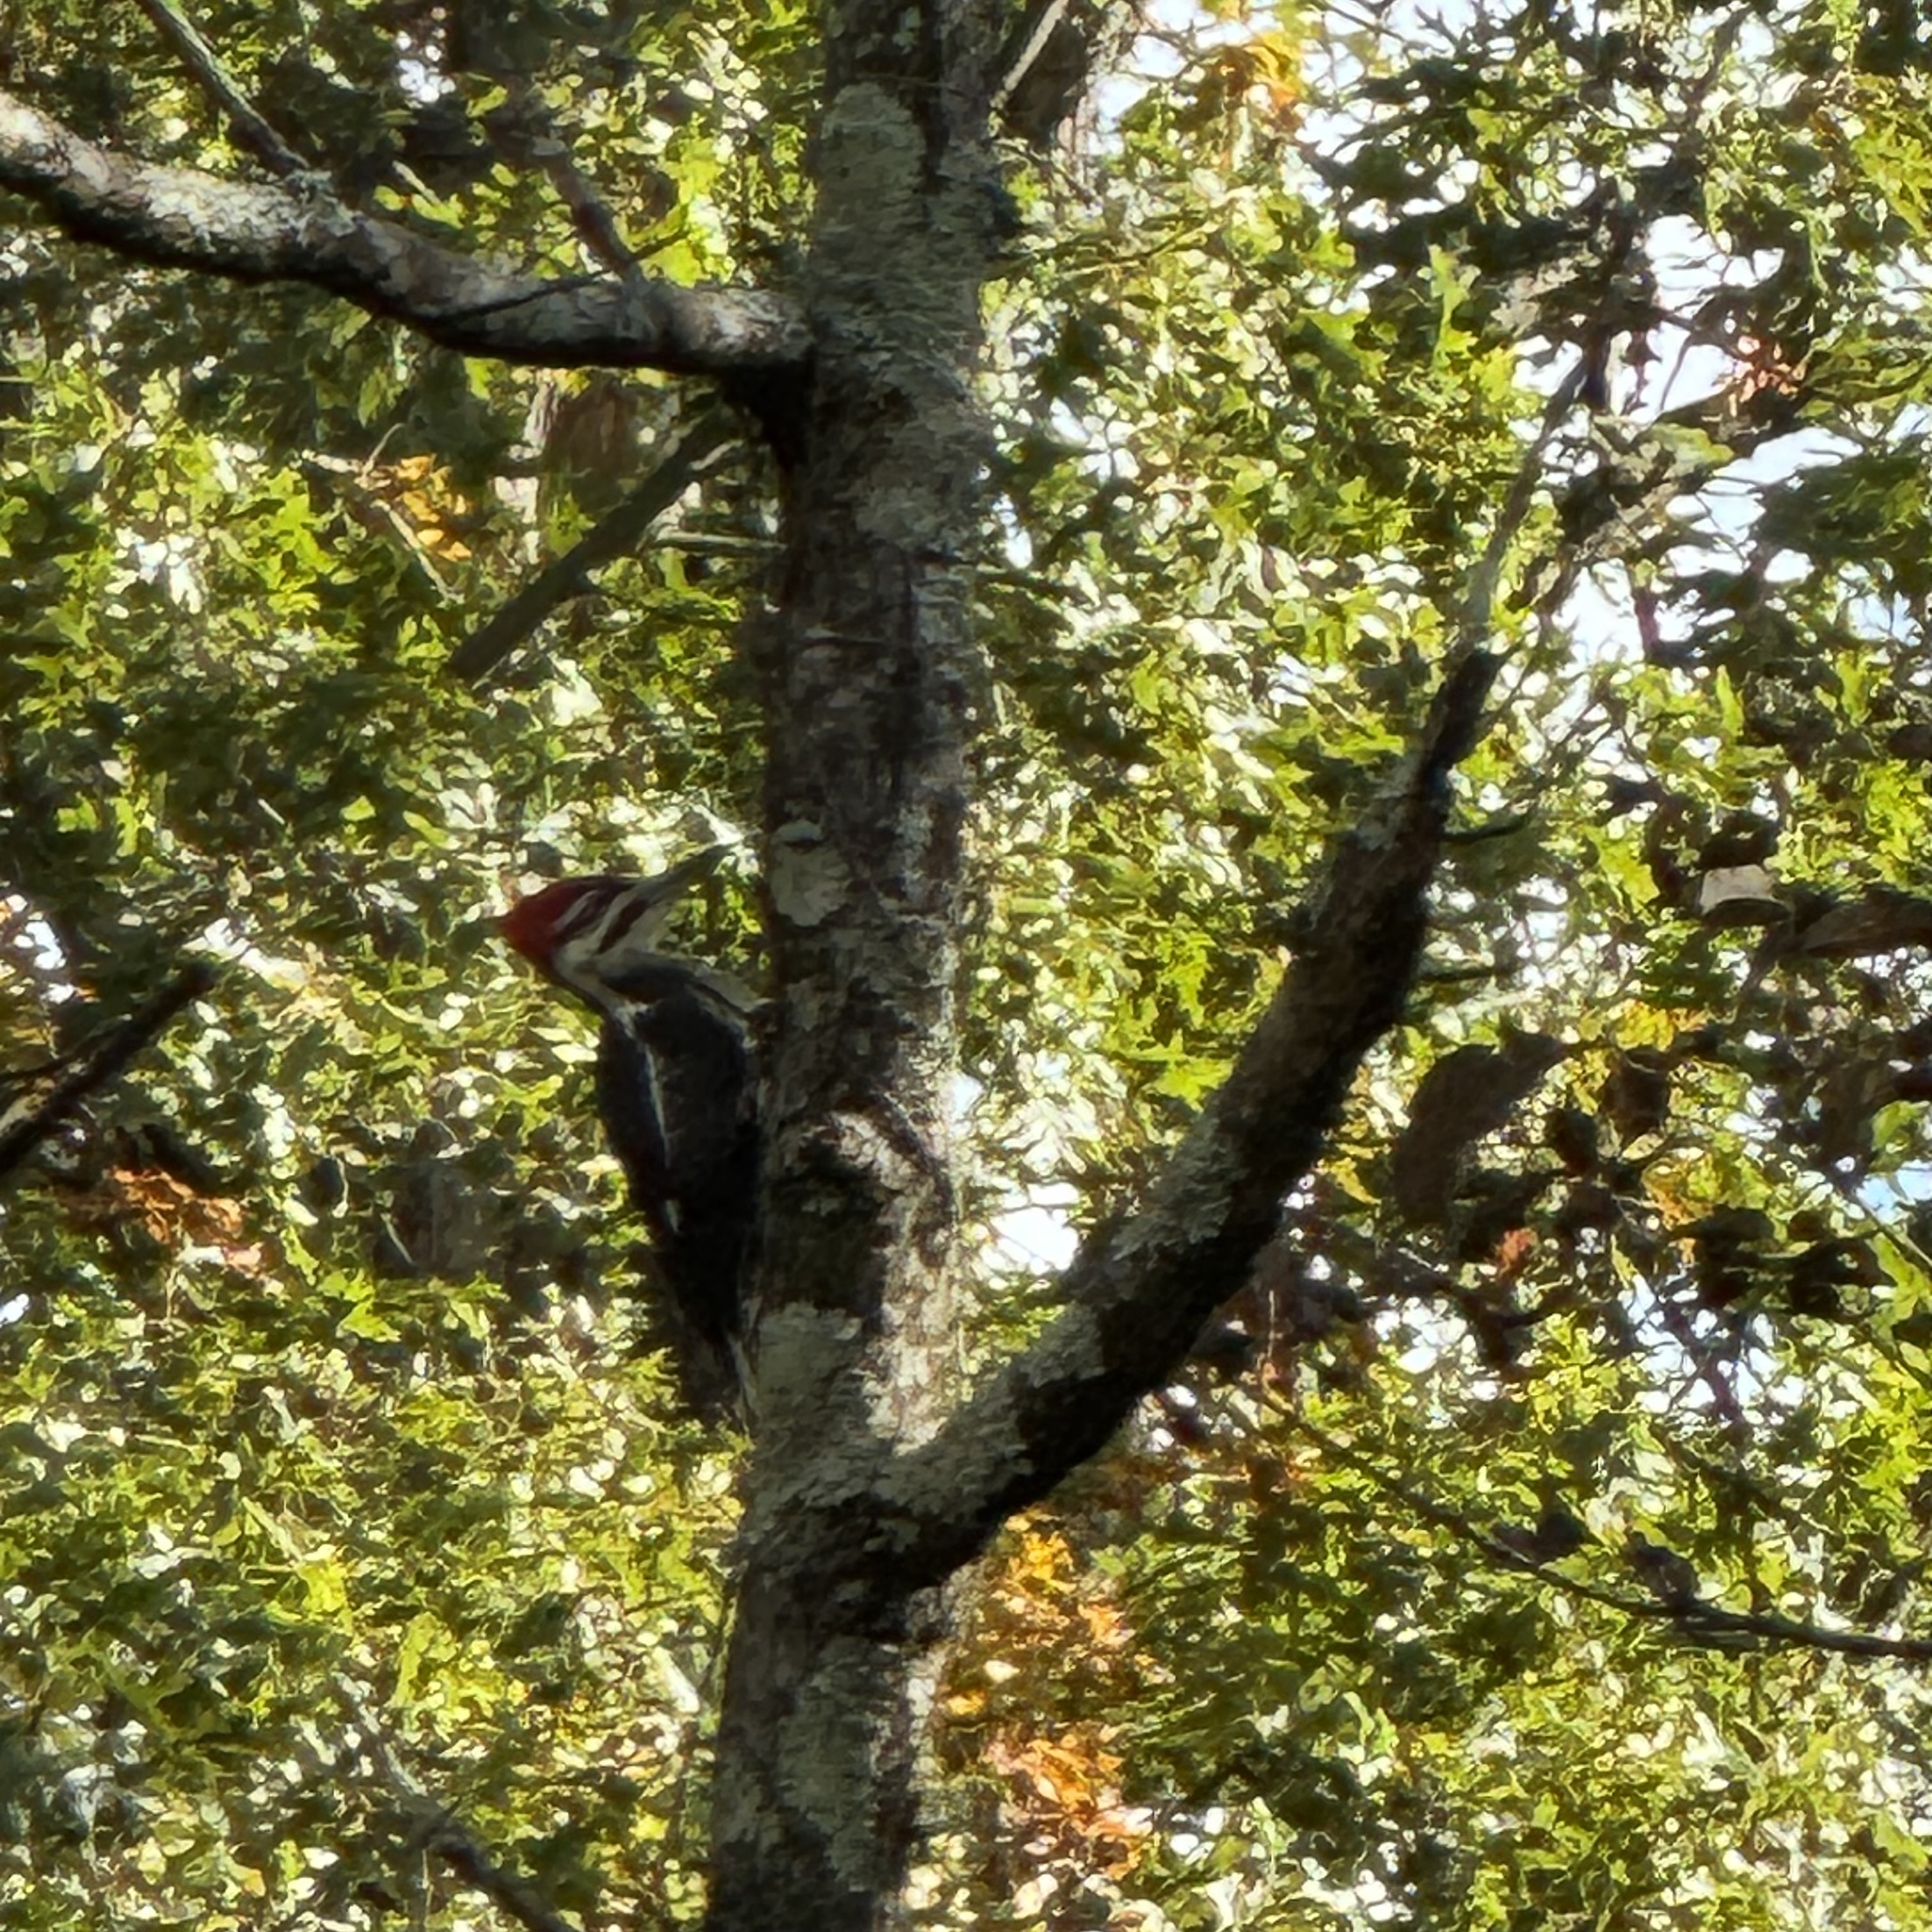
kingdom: Animalia
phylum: Chordata
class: Aves
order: Piciformes
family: Picidae
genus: Dryocopus
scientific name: Dryocopus pileatus
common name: Pileated woodpecker
